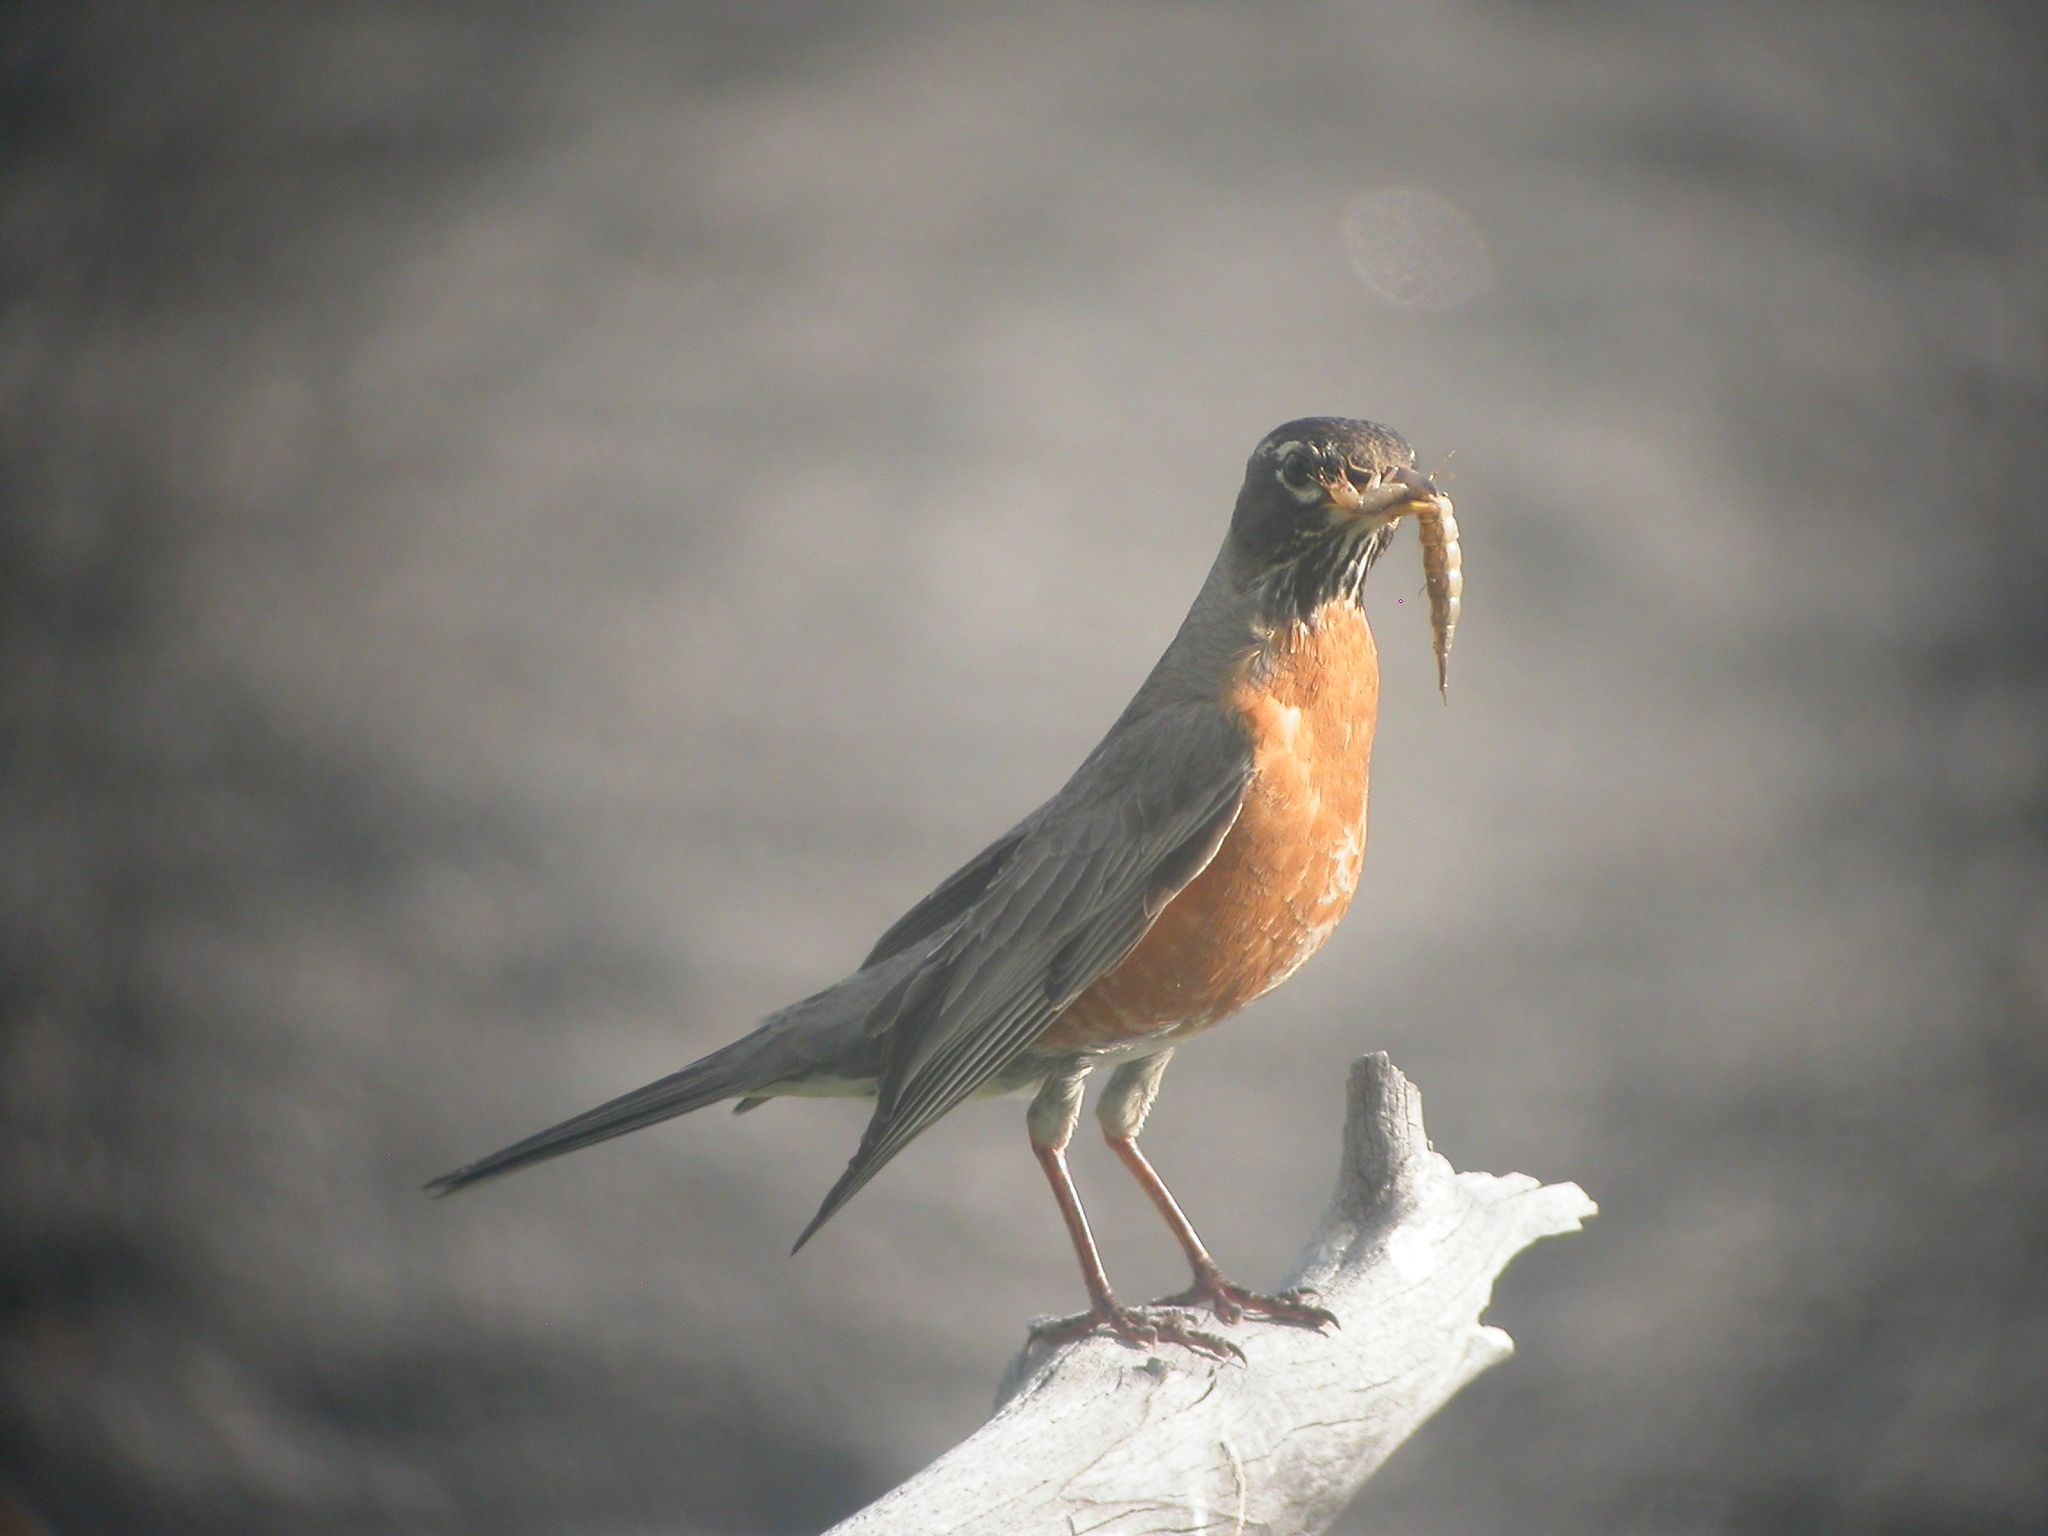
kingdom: Animalia
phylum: Chordata
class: Aves
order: Passeriformes
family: Turdidae
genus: Turdus
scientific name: Turdus migratorius
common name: American robin
